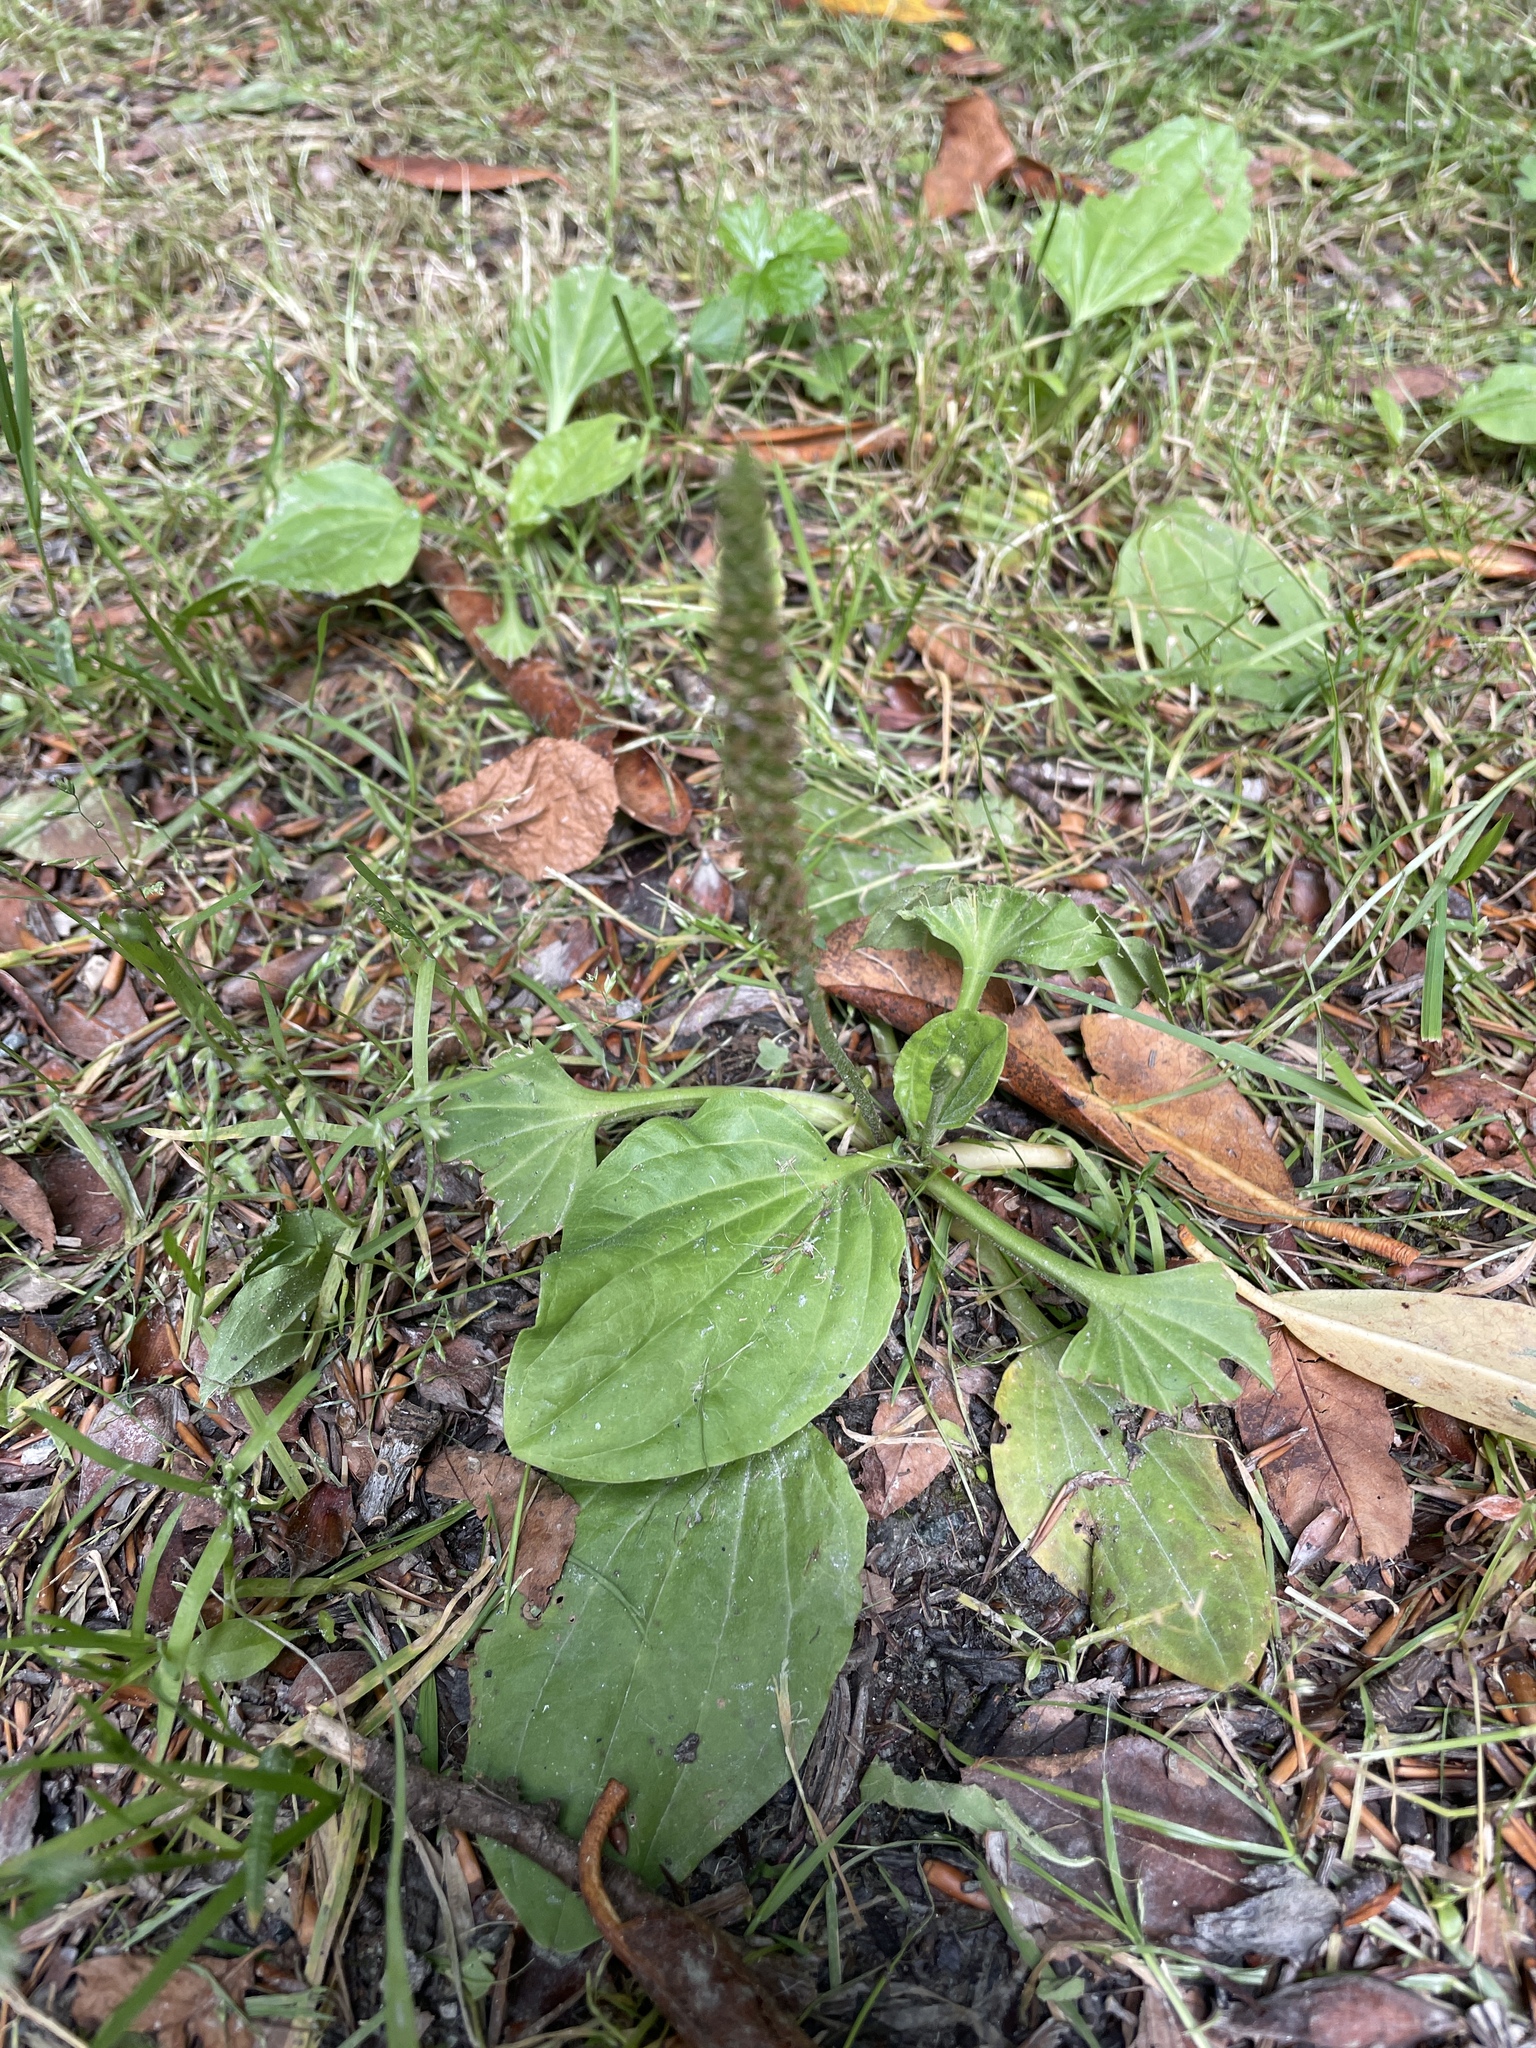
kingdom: Plantae
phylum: Tracheophyta
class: Magnoliopsida
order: Lamiales
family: Plantaginaceae
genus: Plantago
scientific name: Plantago major
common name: Common plantain
